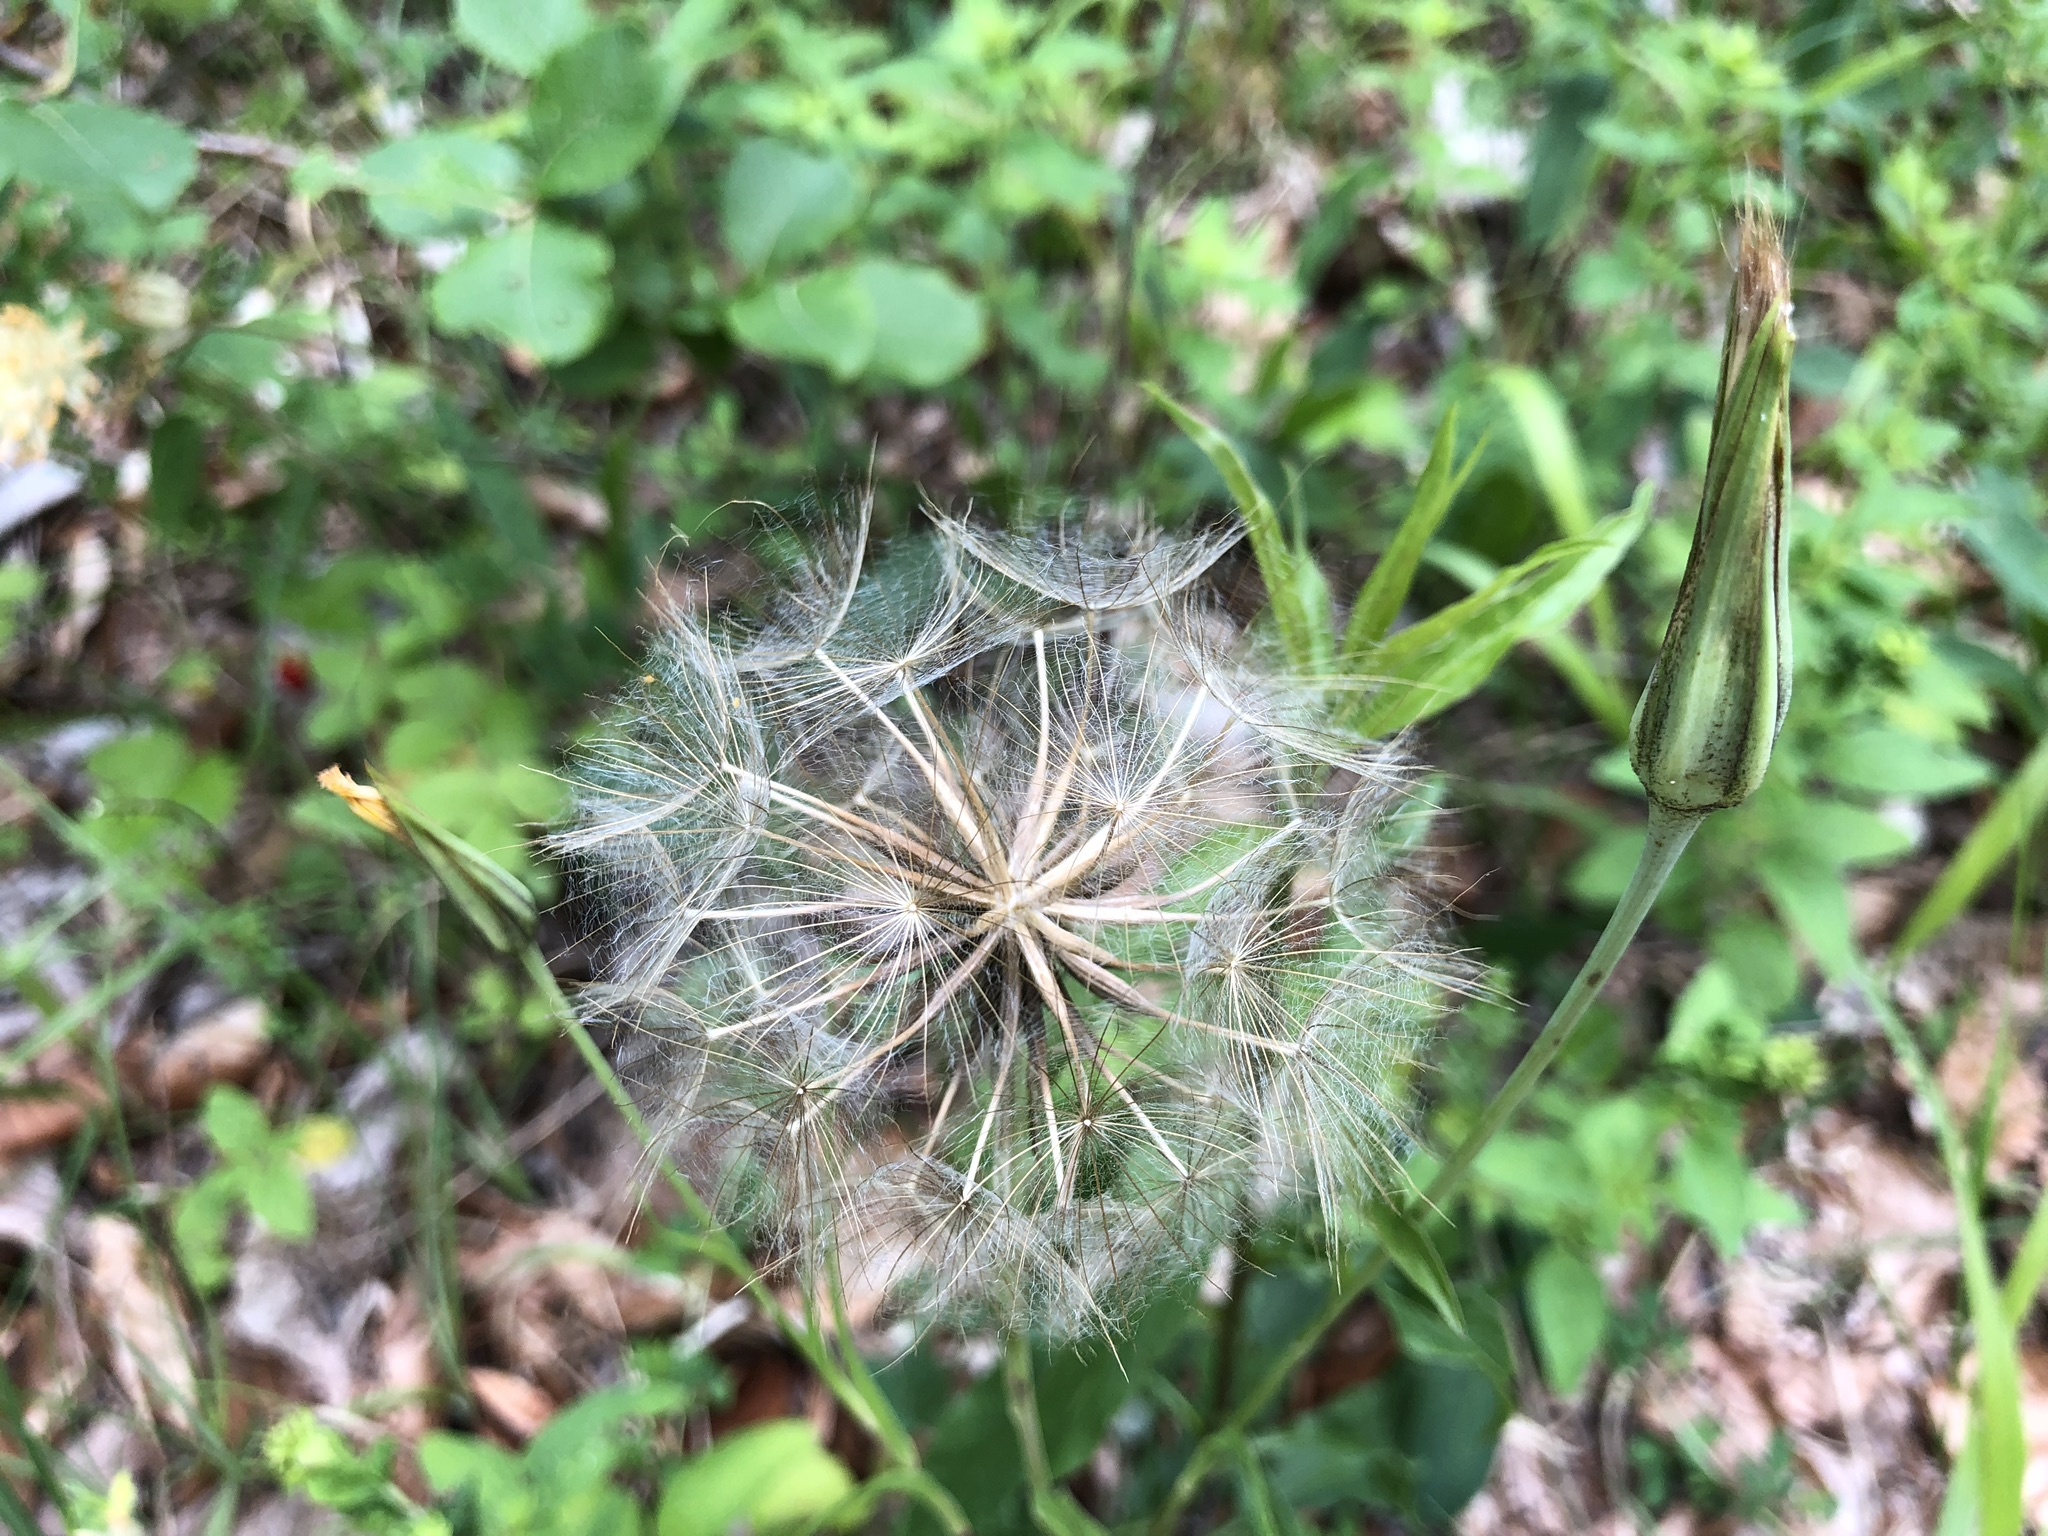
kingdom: Plantae
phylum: Tracheophyta
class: Magnoliopsida
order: Asterales
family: Asteraceae
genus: Tragopogon
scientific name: Tragopogon pratensis
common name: Goat's-beard
